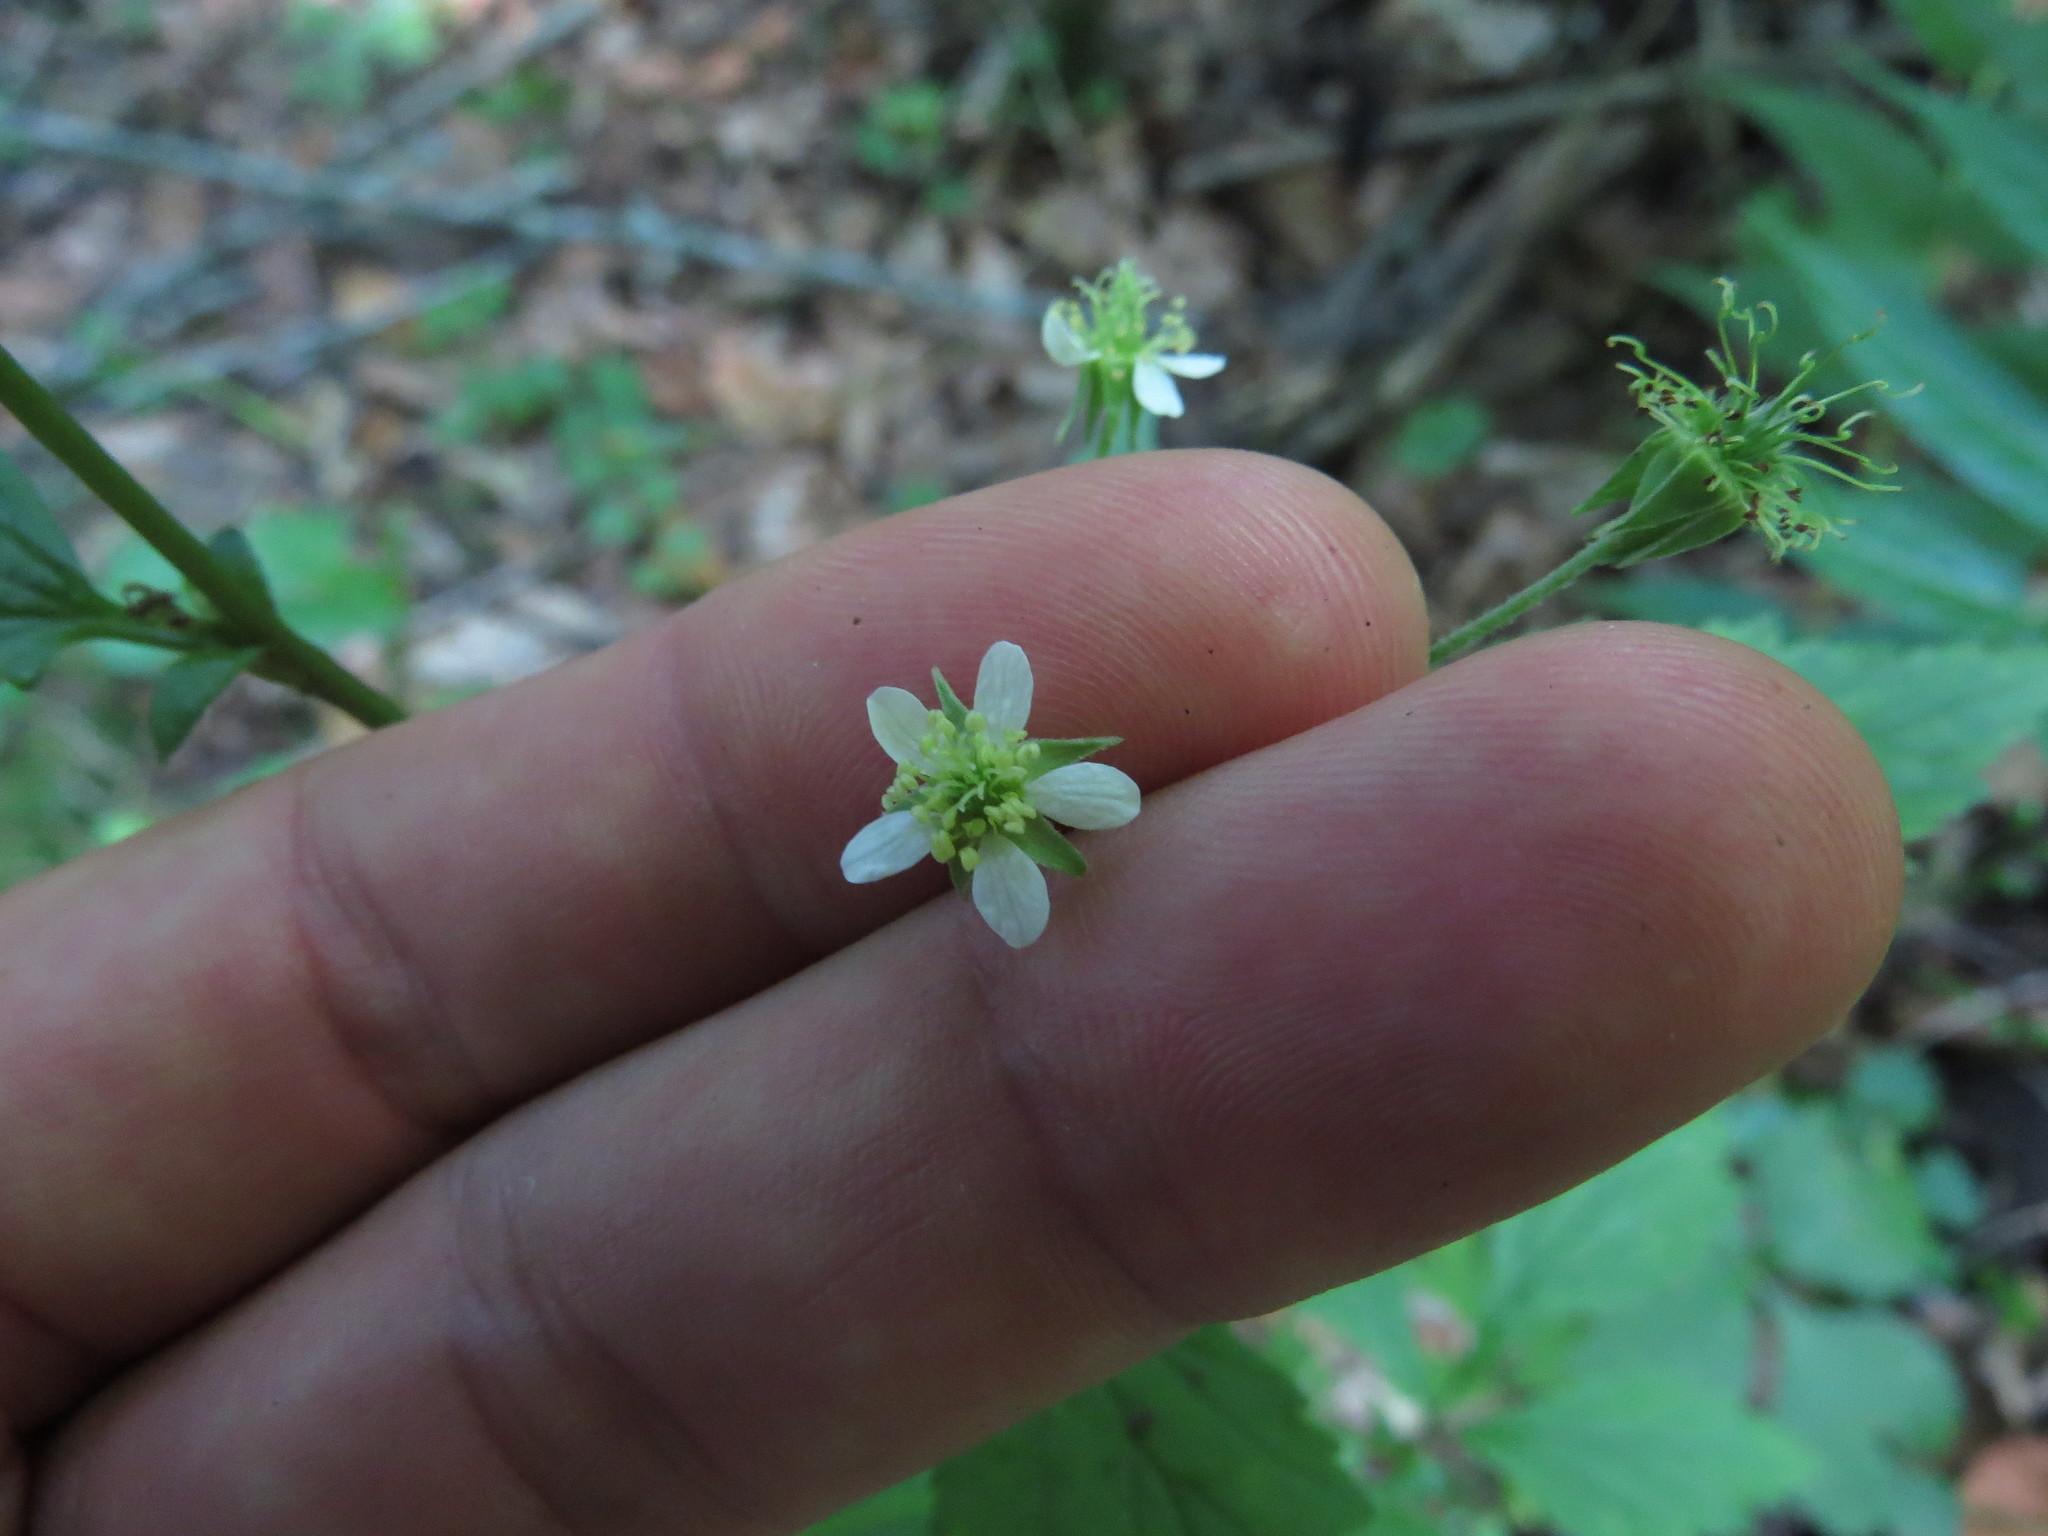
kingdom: Plantae
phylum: Tracheophyta
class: Magnoliopsida
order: Rosales
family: Rosaceae
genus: Geum
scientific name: Geum canadense
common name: White avens
